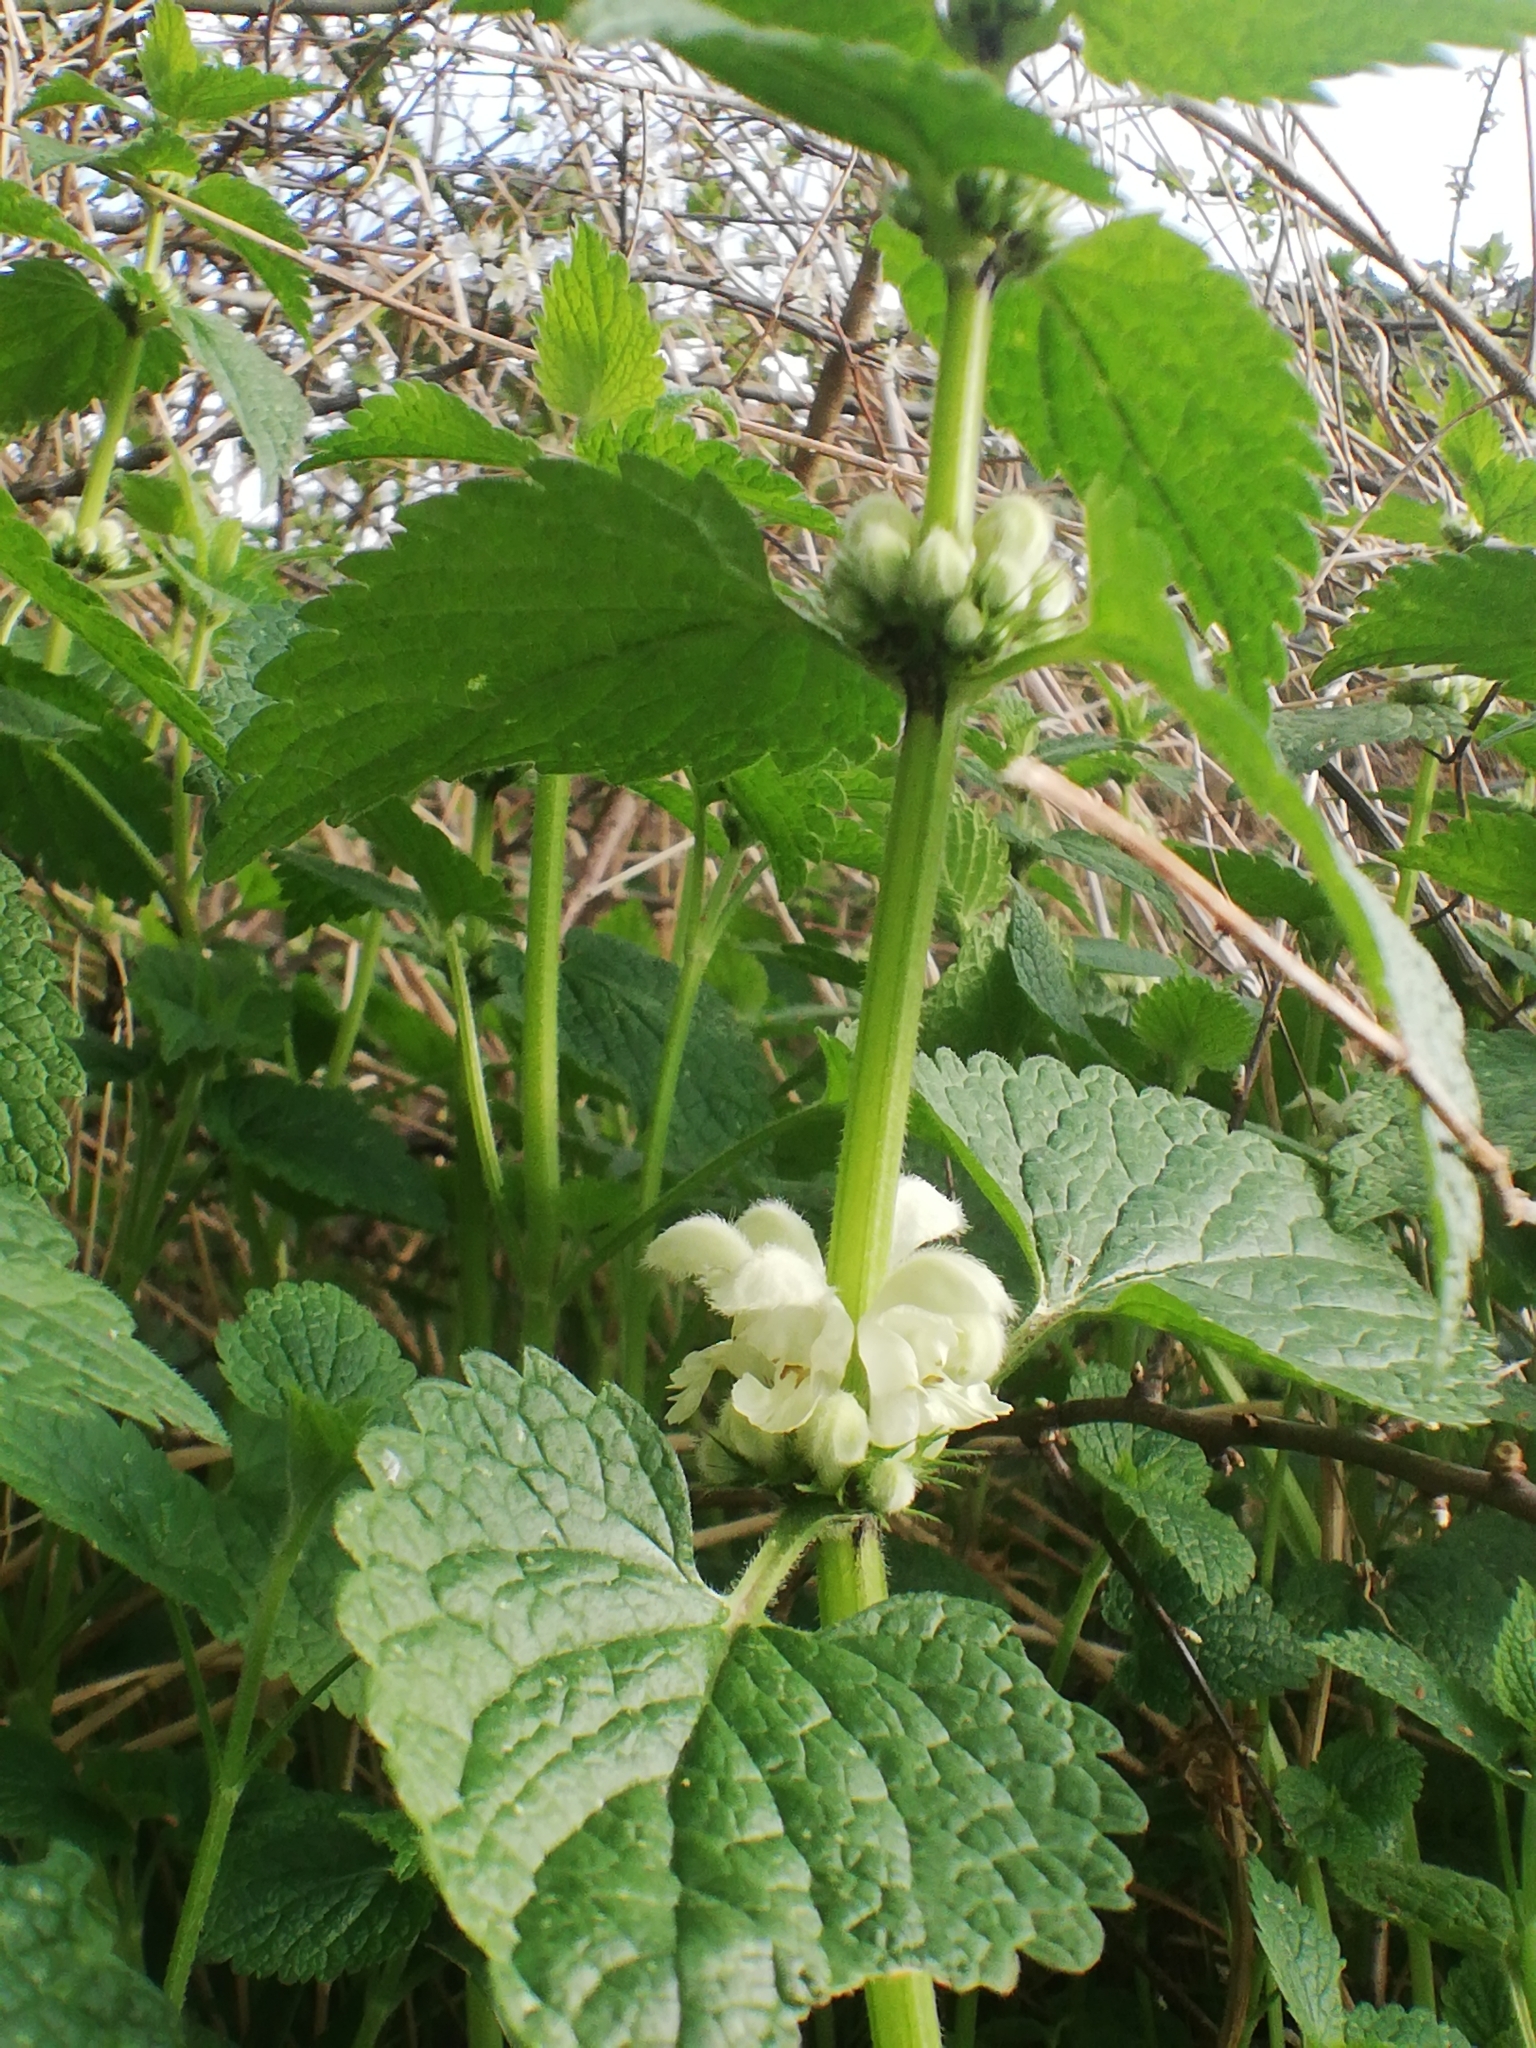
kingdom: Plantae
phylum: Tracheophyta
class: Magnoliopsida
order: Lamiales
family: Lamiaceae
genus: Lamium
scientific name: Lamium album
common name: White dead-nettle
